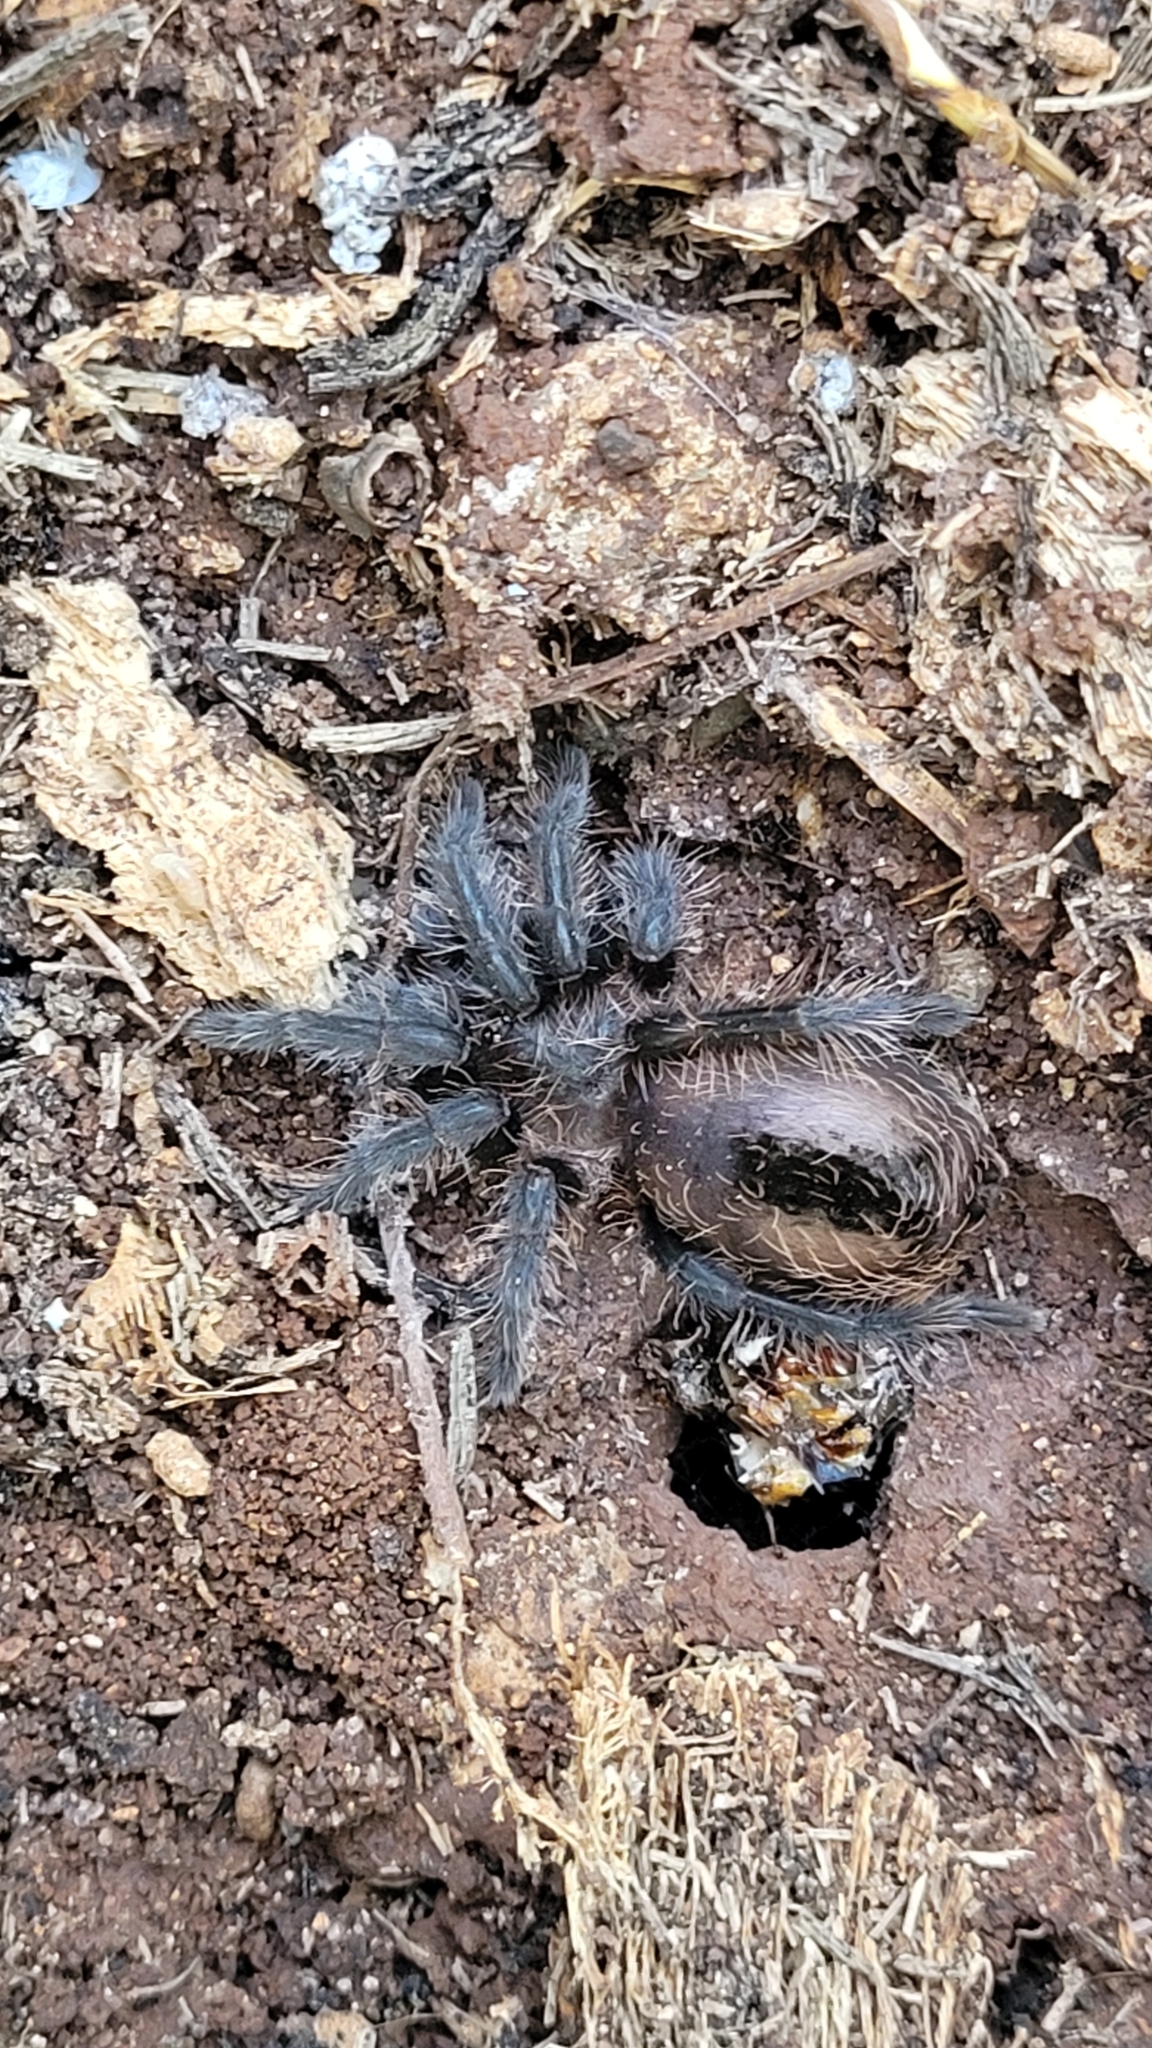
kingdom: Animalia
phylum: Arthropoda
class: Arachnida
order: Araneae
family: Theraphosidae
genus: Tliltocatl
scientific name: Tliltocatl albopilosus
